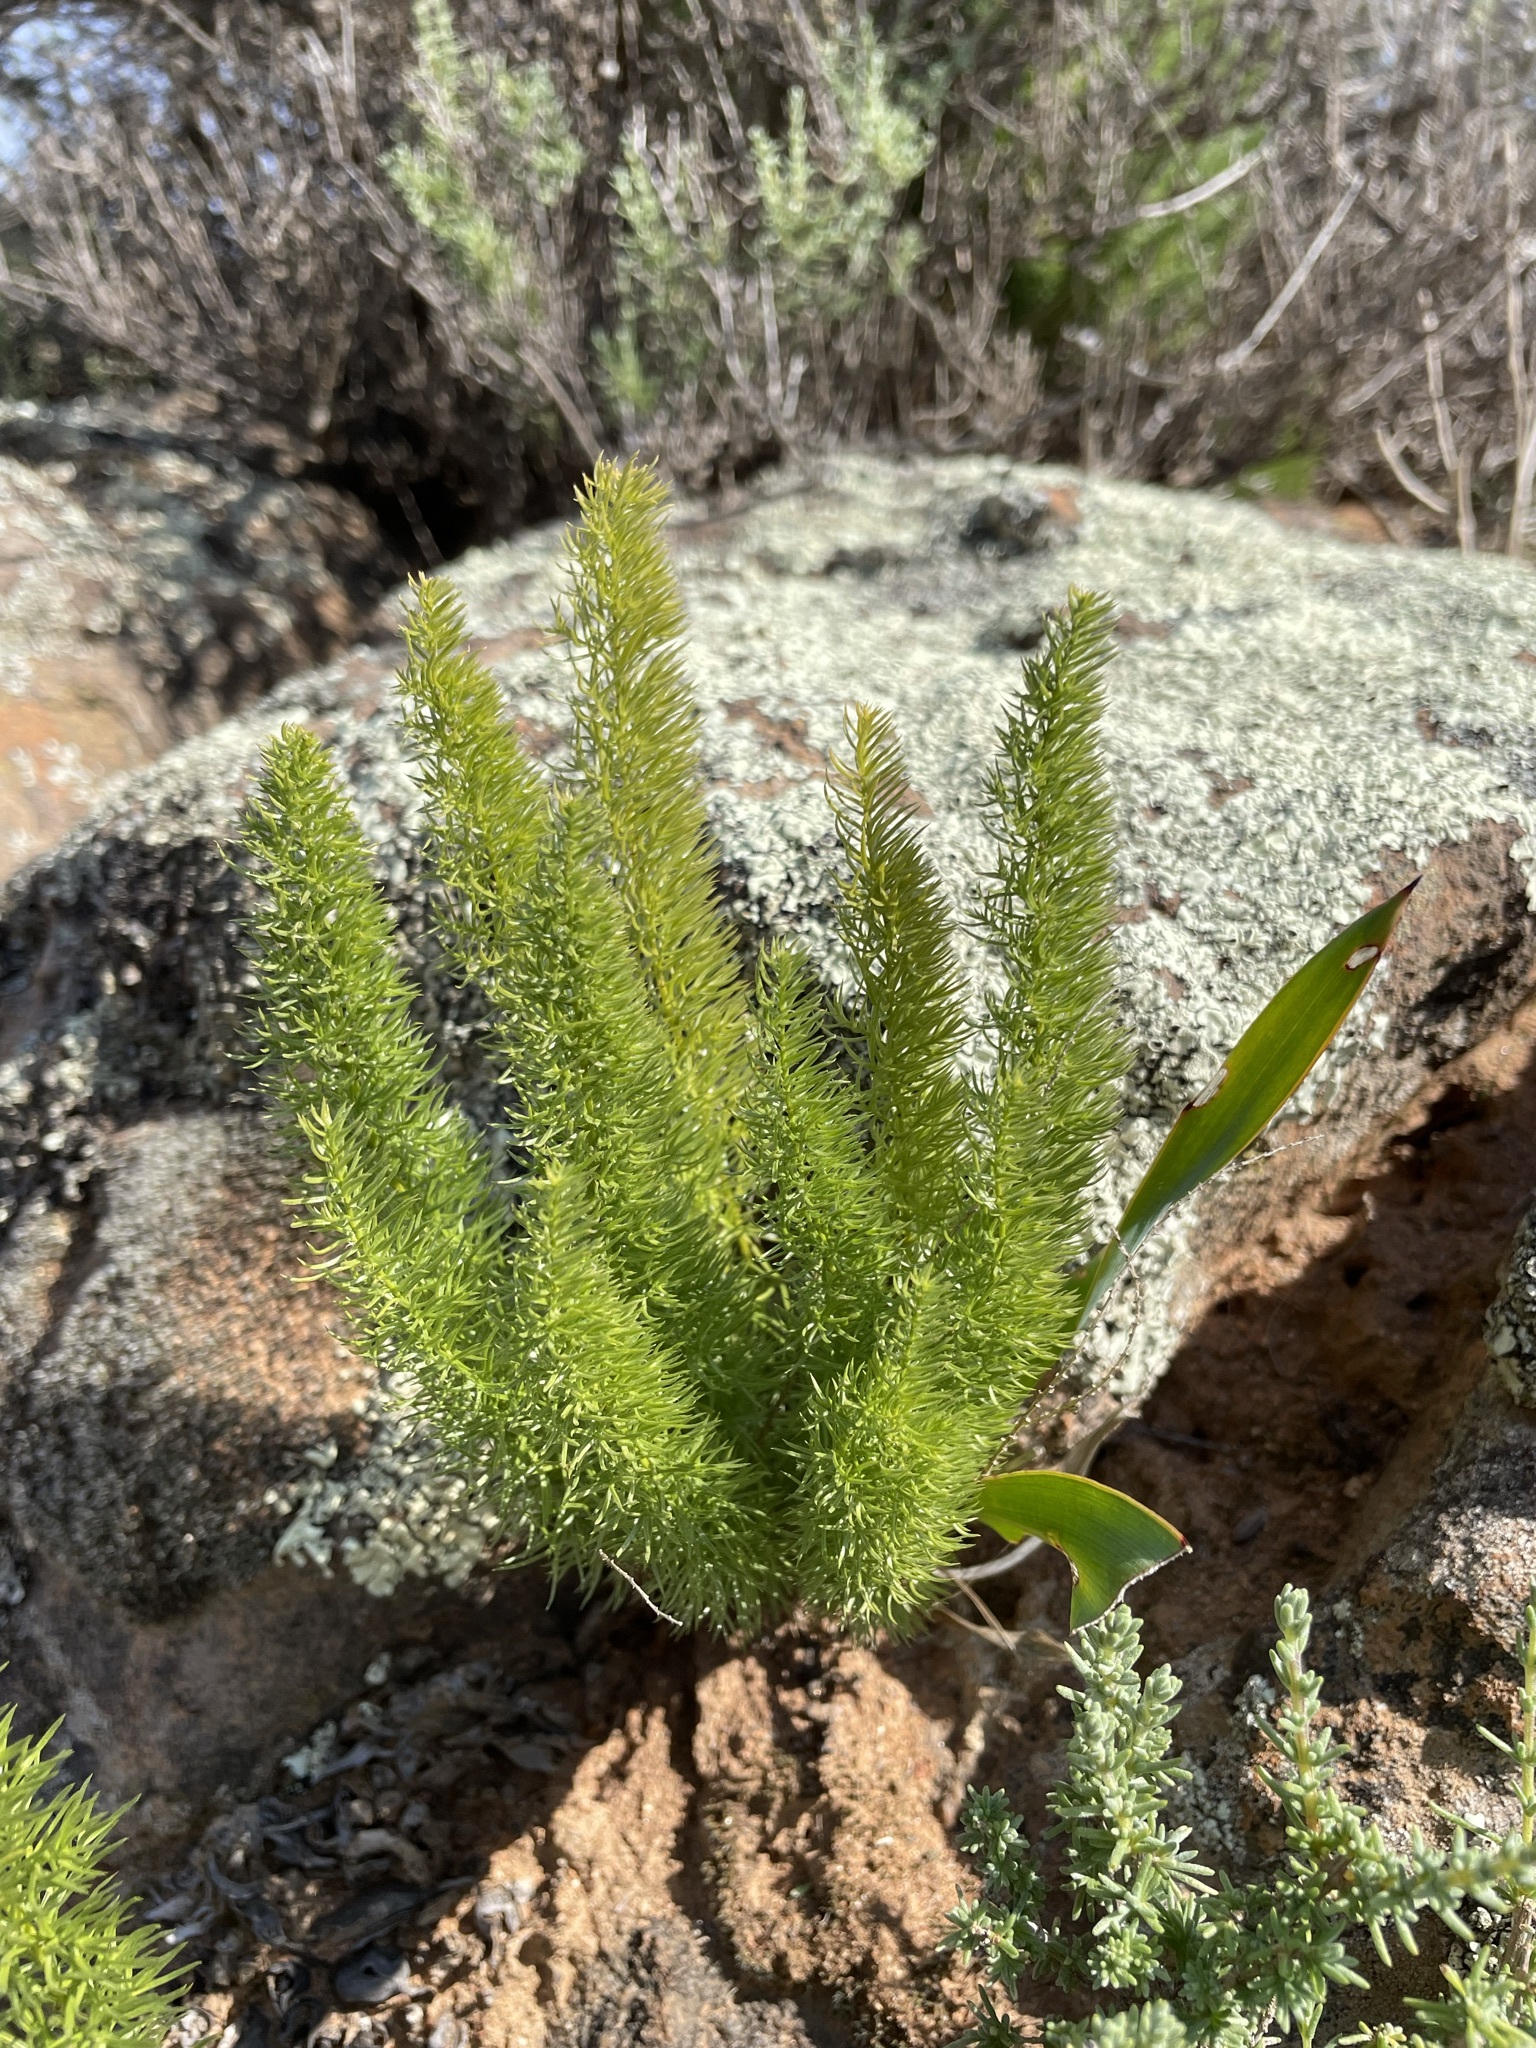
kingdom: Plantae
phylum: Tracheophyta
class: Liliopsida
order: Asparagales
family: Asparagaceae
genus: Asparagus
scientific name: Asparagus juniperoides
